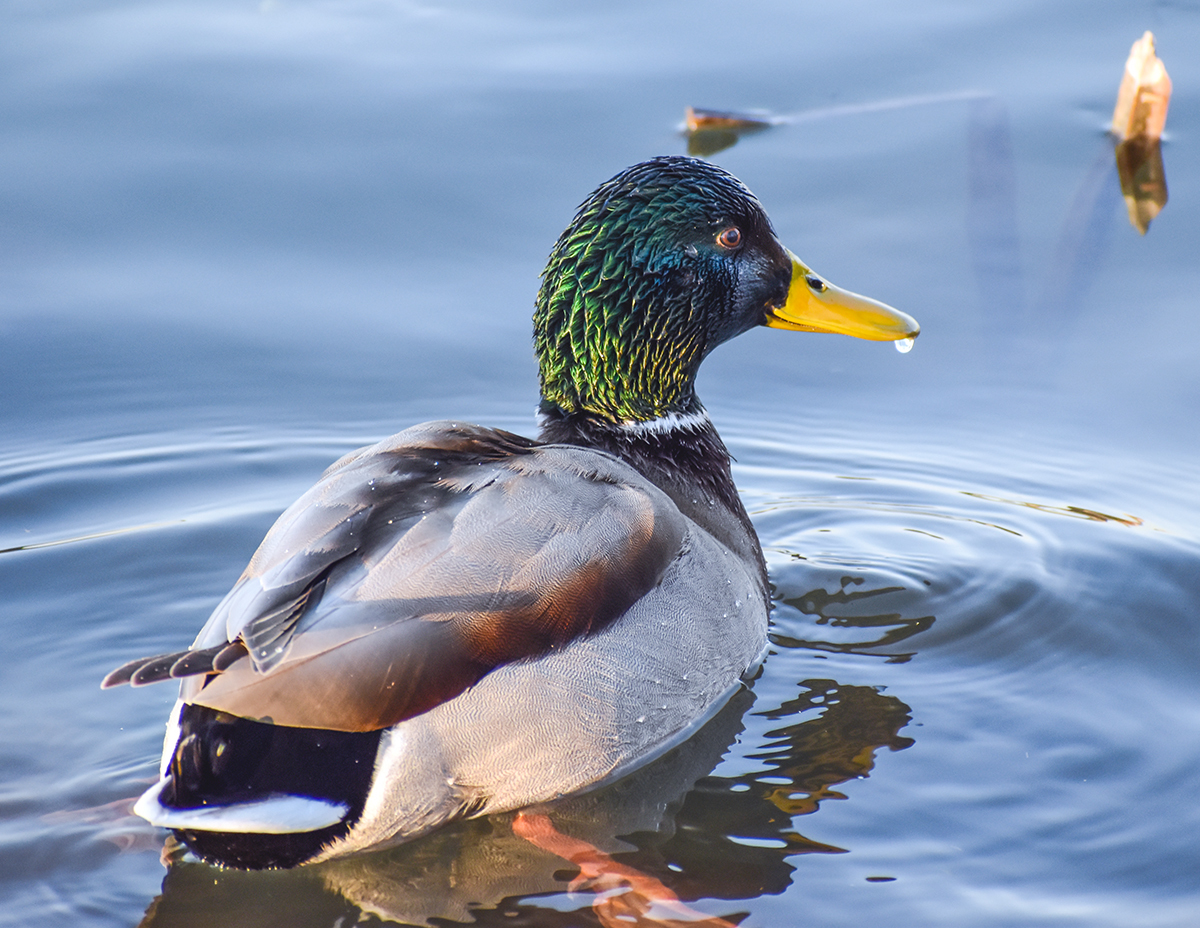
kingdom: Animalia
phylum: Chordata
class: Aves
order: Anseriformes
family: Anatidae
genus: Anas
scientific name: Anas platyrhynchos
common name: Mallard
